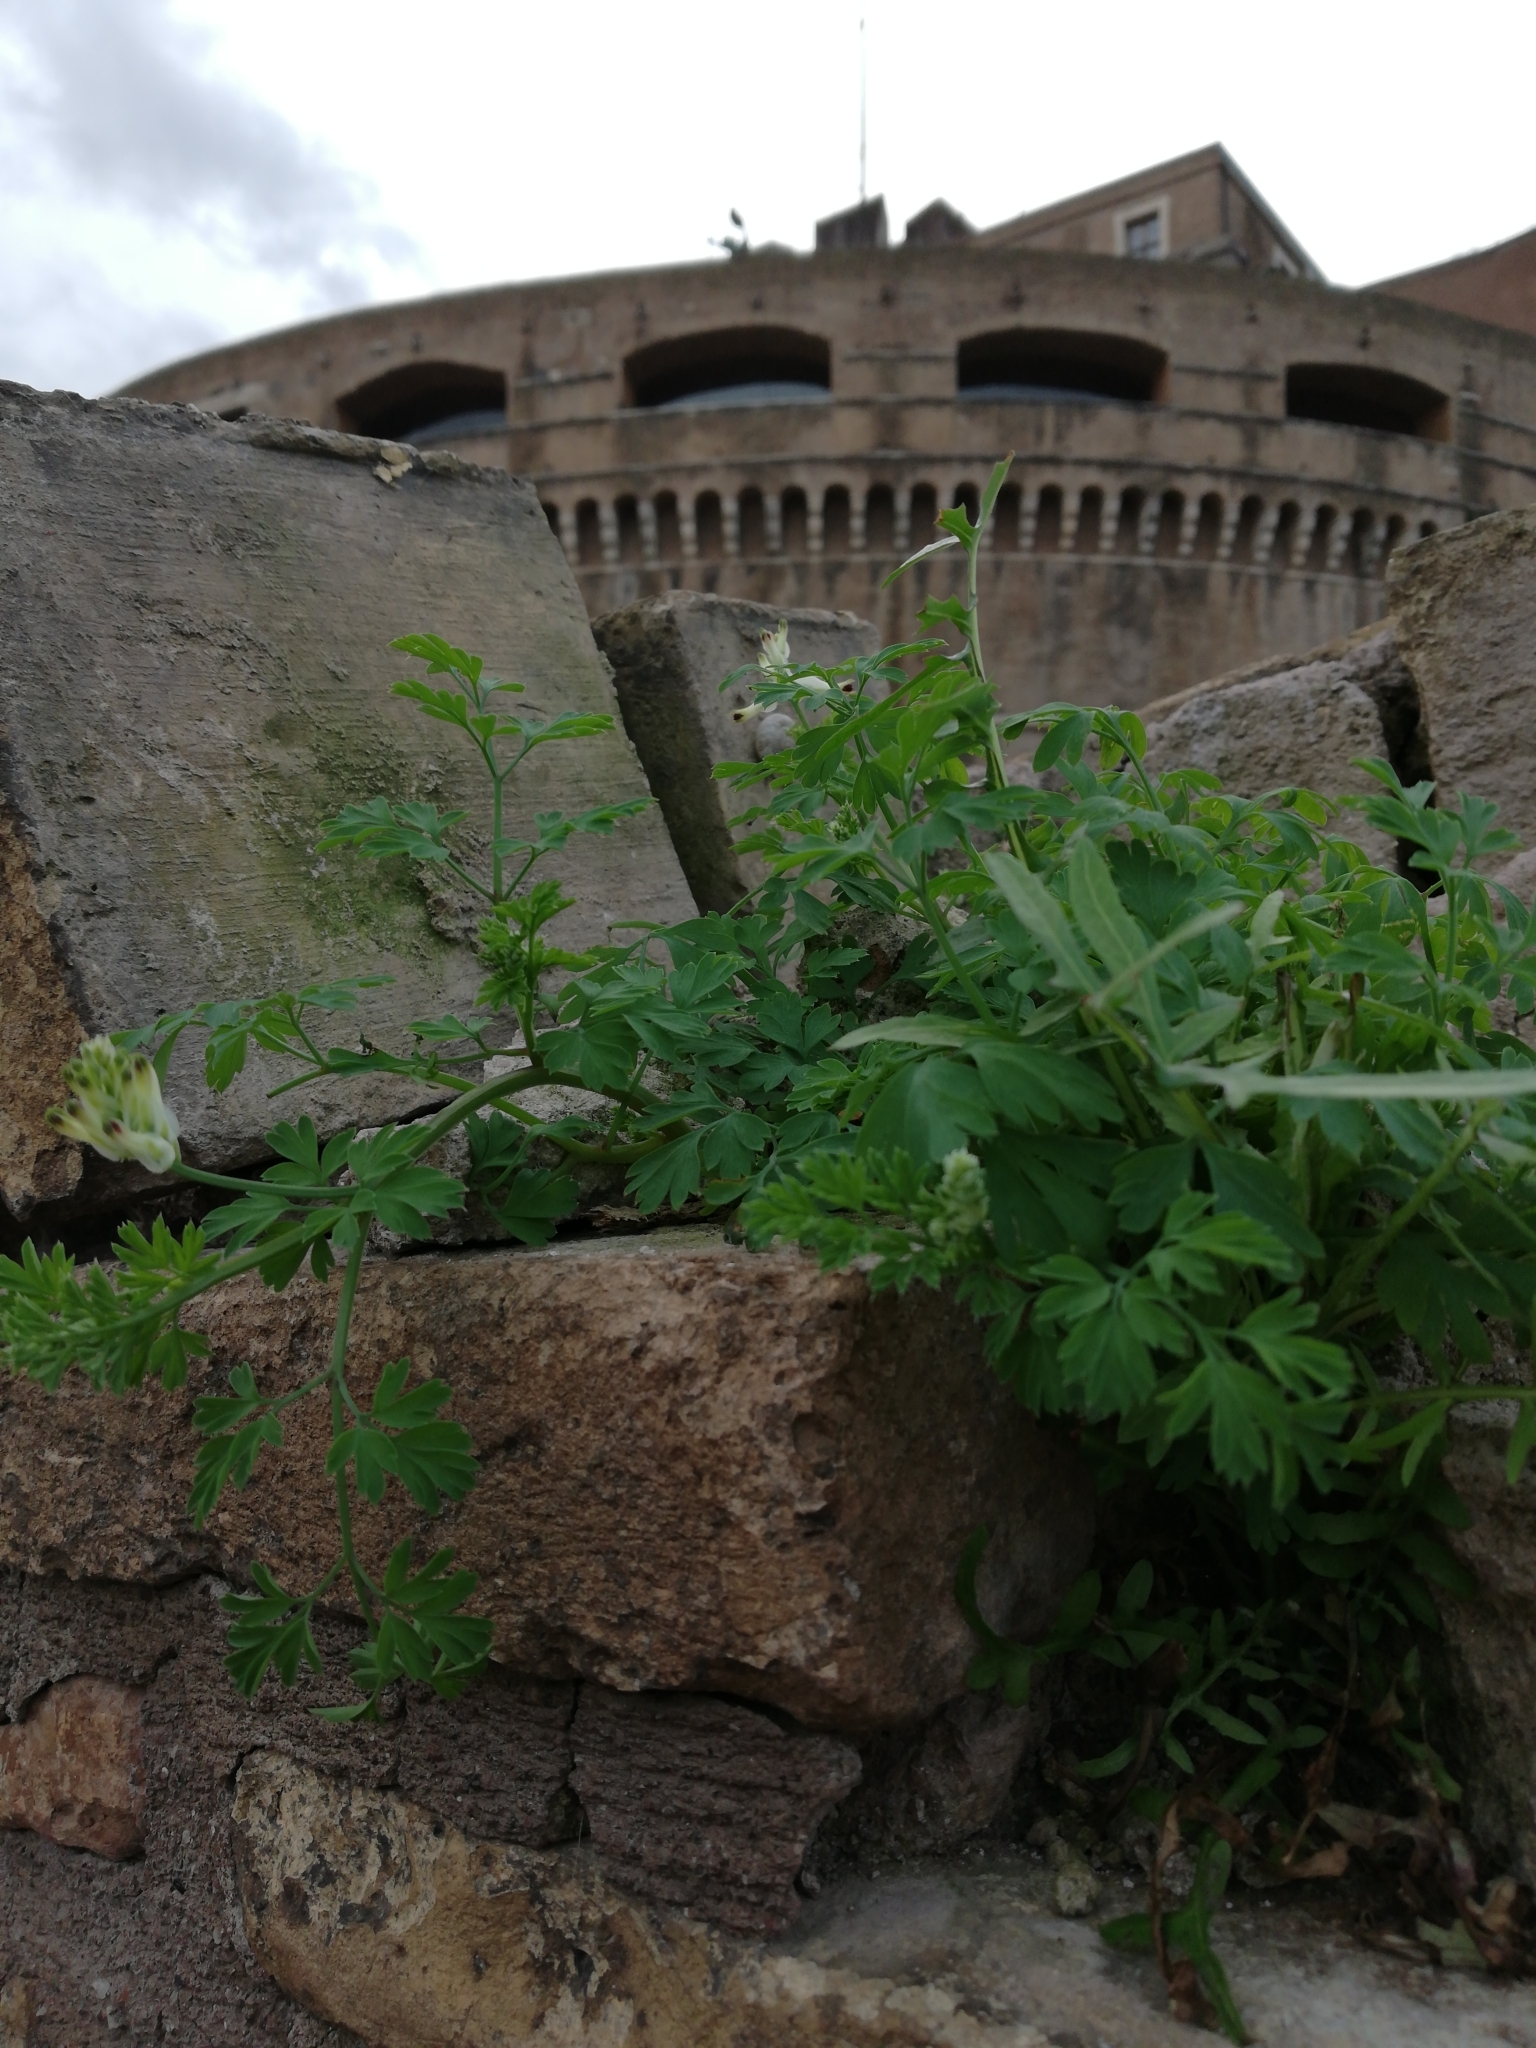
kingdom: Plantae
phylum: Tracheophyta
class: Magnoliopsida
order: Ranunculales
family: Papaveraceae
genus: Fumaria
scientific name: Fumaria capreolata
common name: White ramping-fumitory
